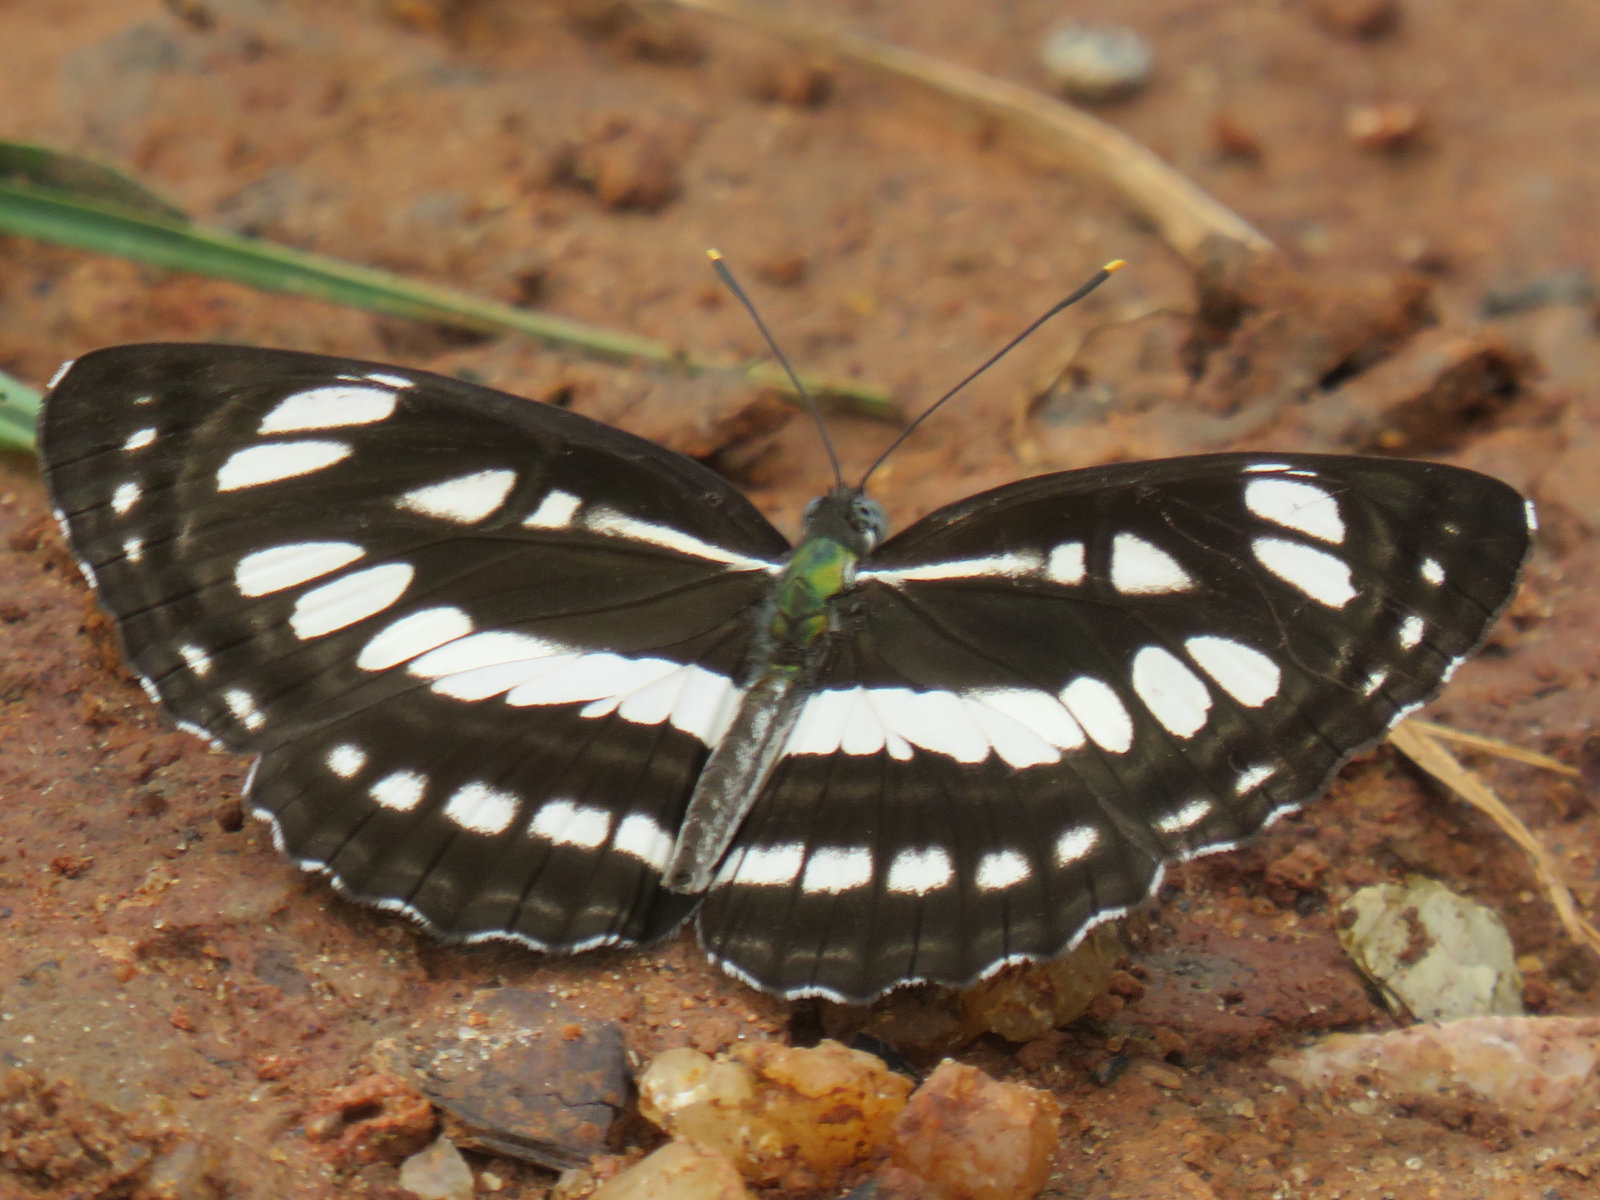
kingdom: Animalia
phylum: Arthropoda
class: Insecta
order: Lepidoptera
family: Nymphalidae
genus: Neptis
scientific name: Neptis hylas
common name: Common sailer
